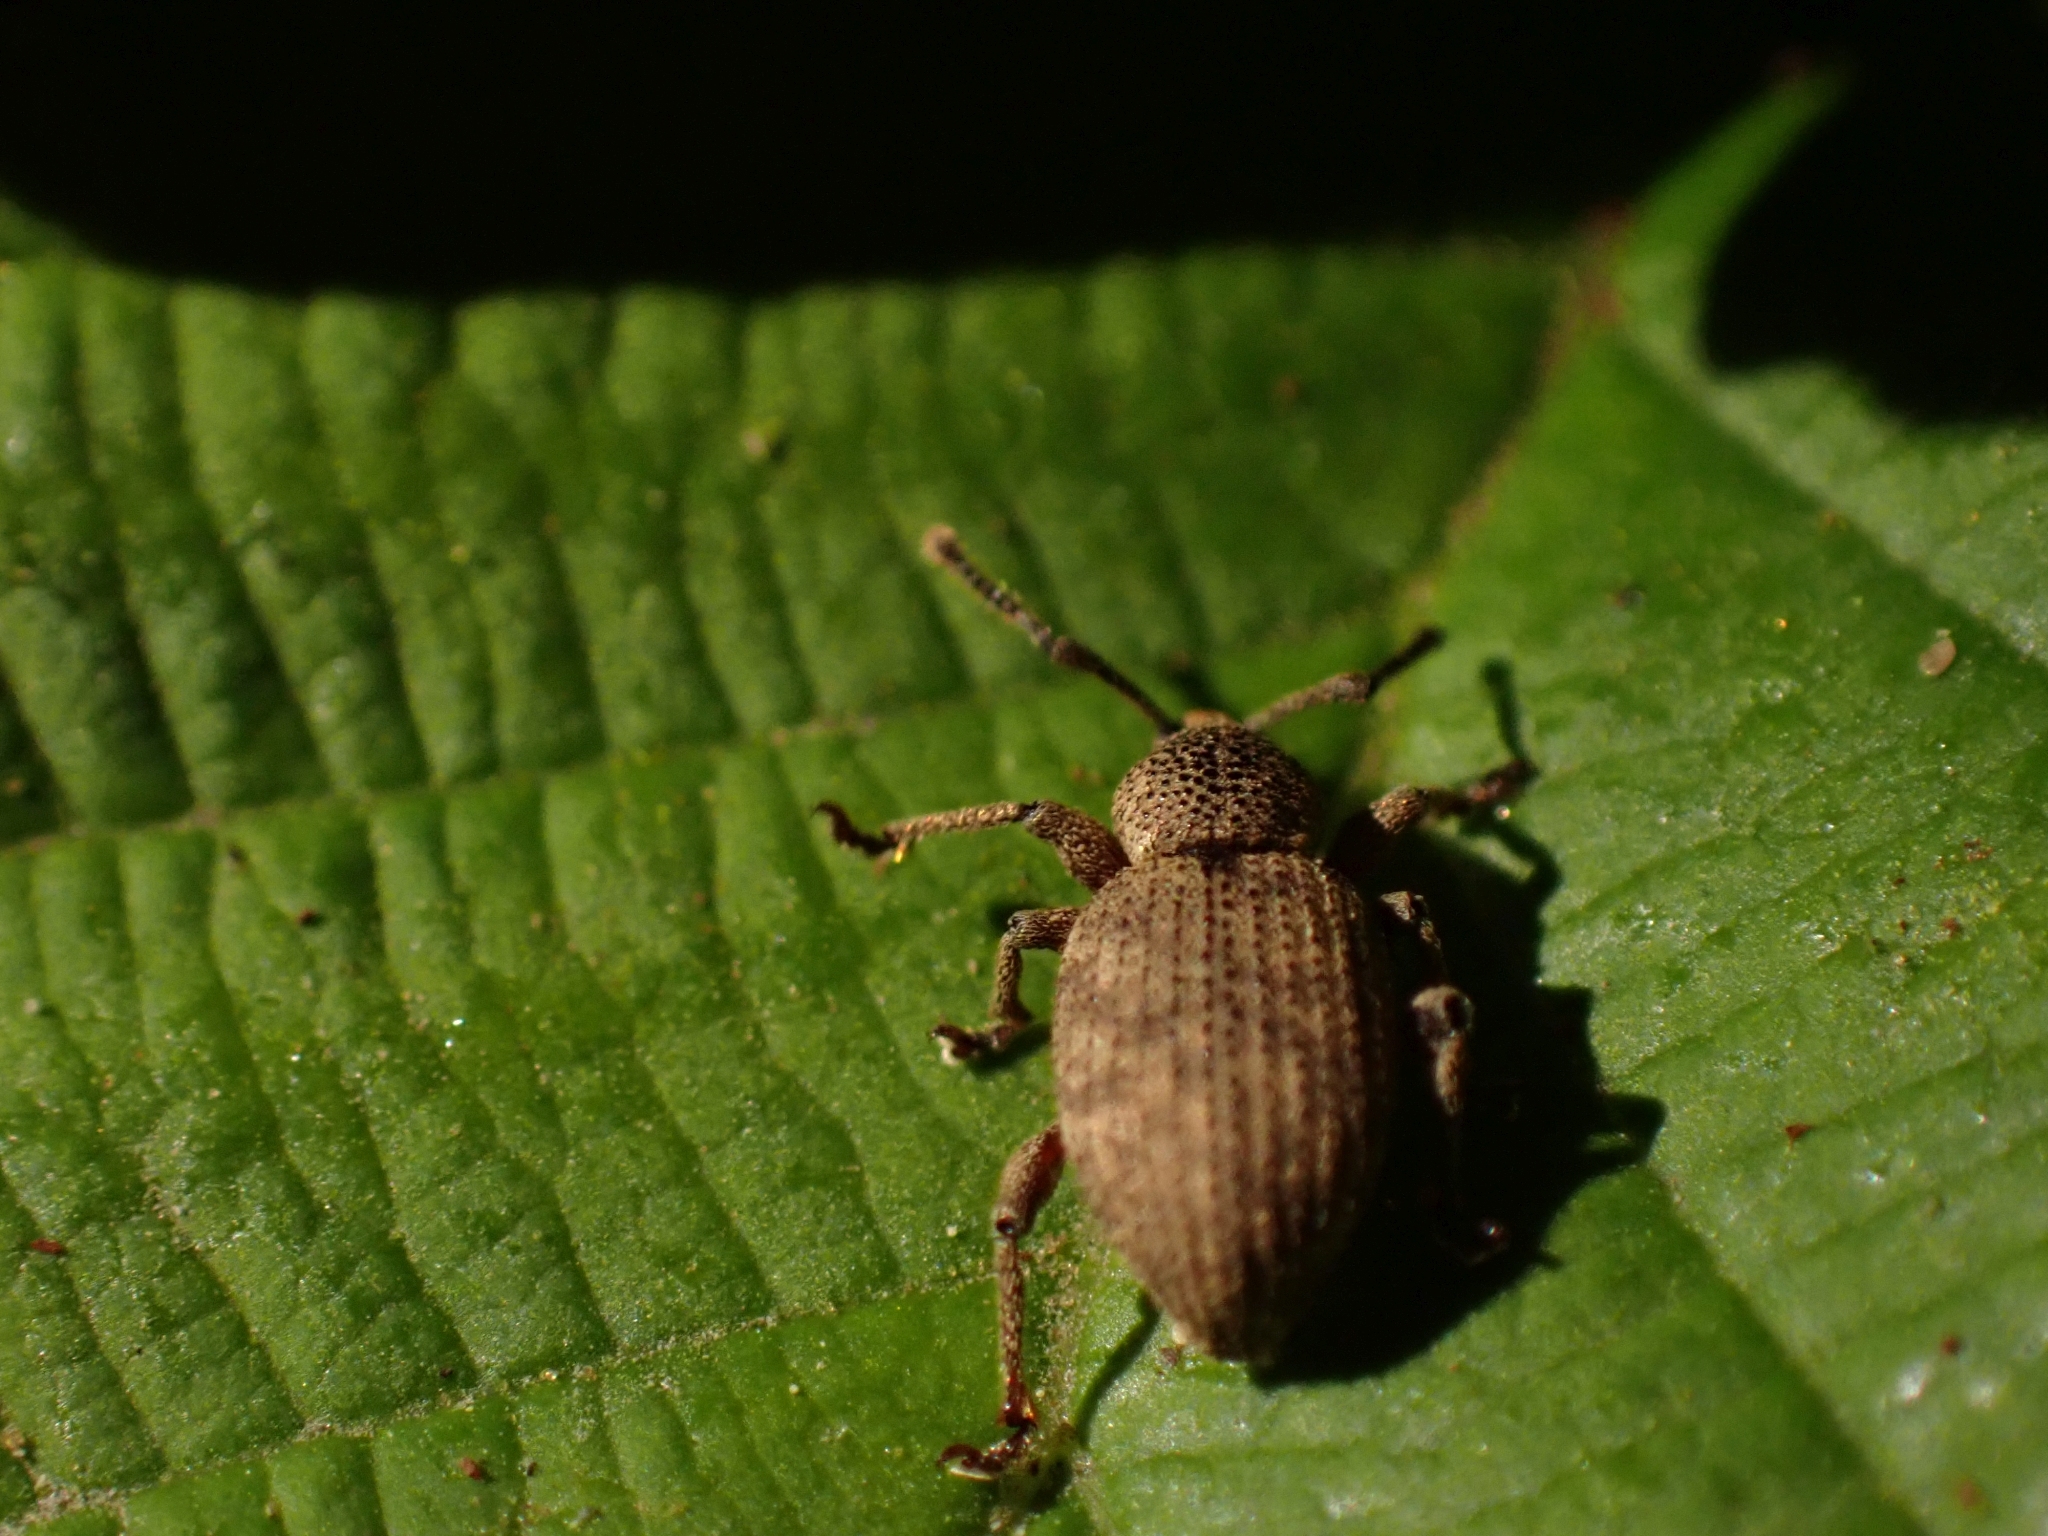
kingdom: Animalia
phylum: Arthropoda
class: Insecta
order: Coleoptera
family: Curculionidae
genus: Otiorhynchus
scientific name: Otiorhynchus singularis
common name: Clay-coloured weevil
